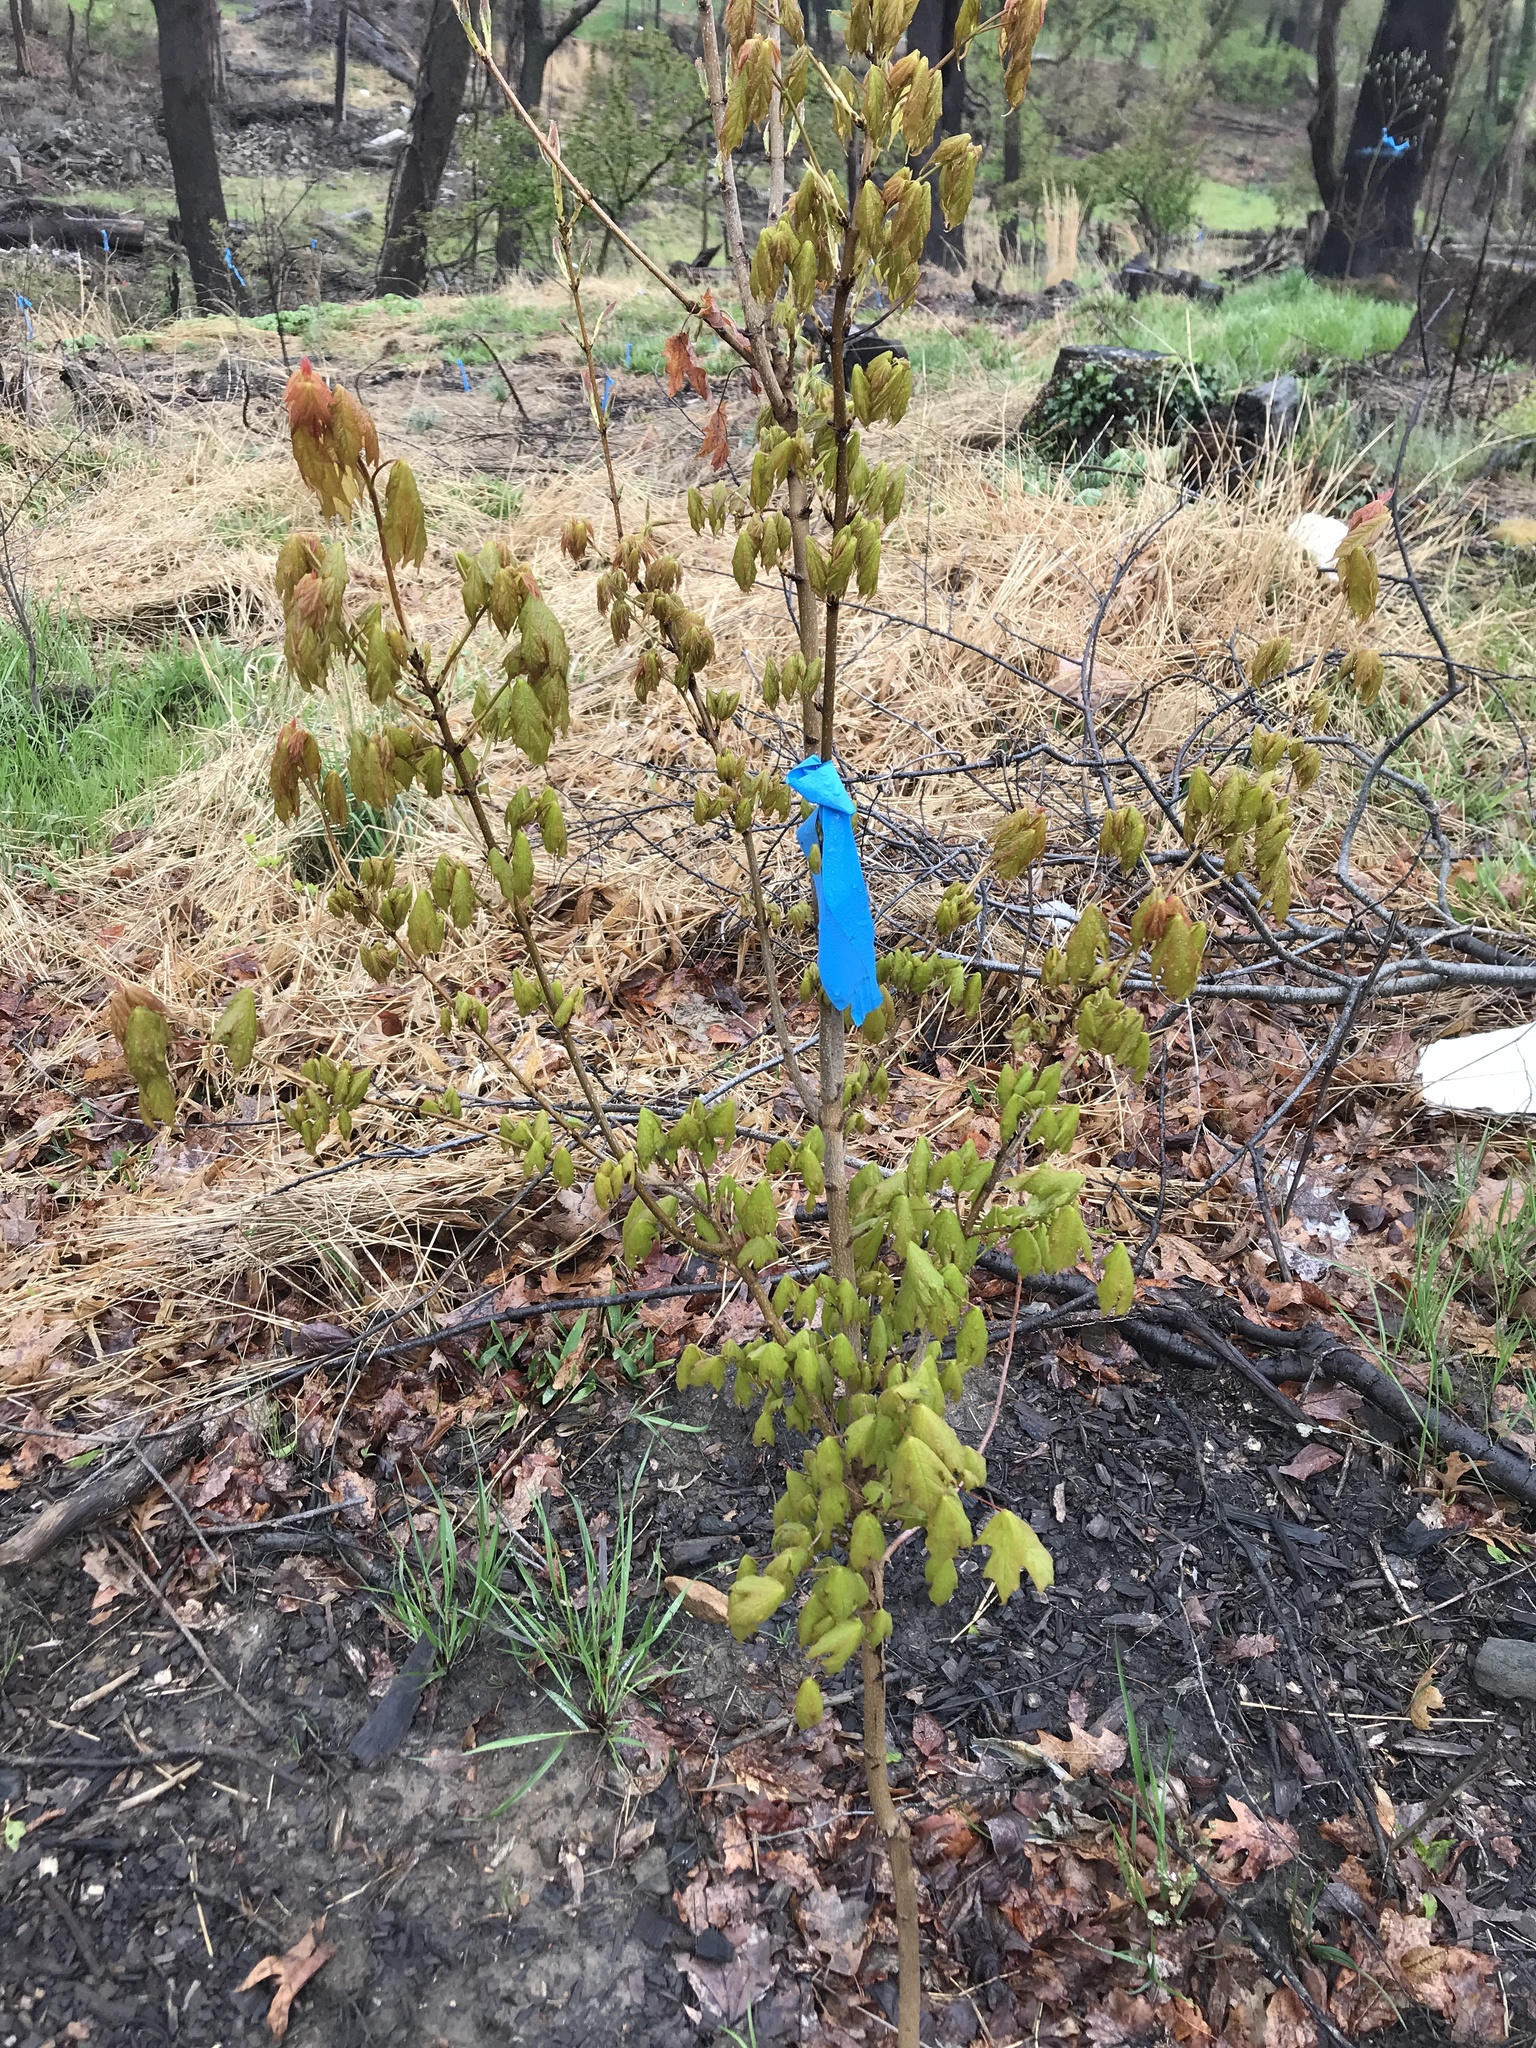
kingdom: Plantae
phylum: Tracheophyta
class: Magnoliopsida
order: Sapindales
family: Sapindaceae
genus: Acer
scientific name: Acer saccharum
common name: Sugar maple
